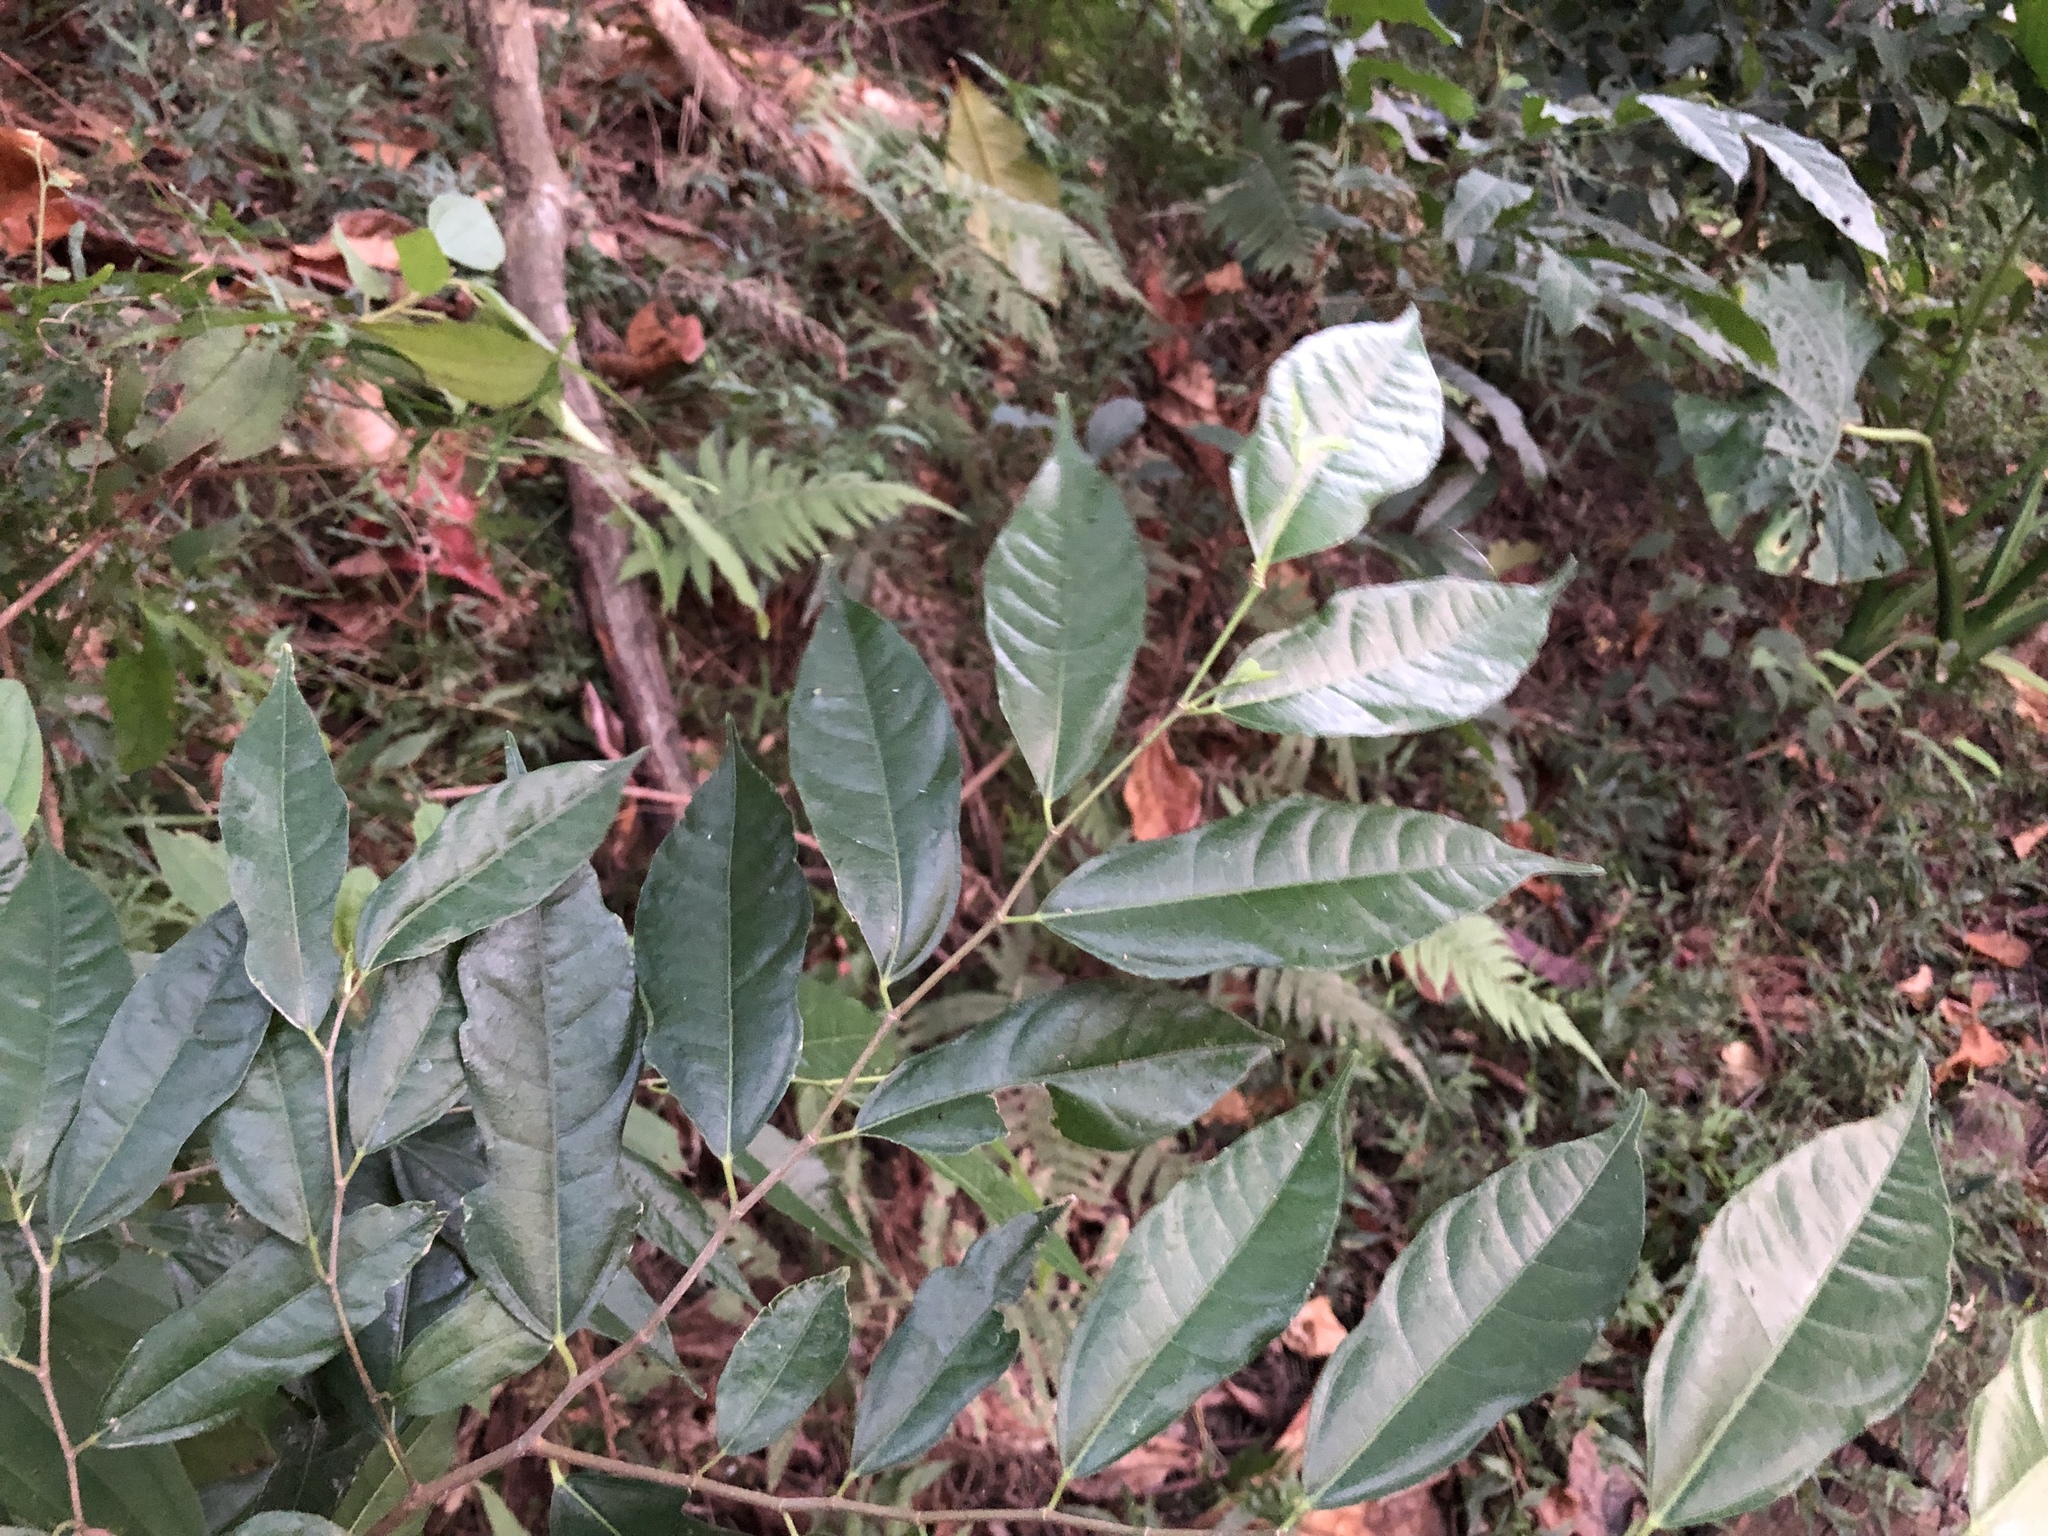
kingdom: Plantae
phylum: Tracheophyta
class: Magnoliopsida
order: Rosales
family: Moraceae
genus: Ficus
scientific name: Ficus ampelos
